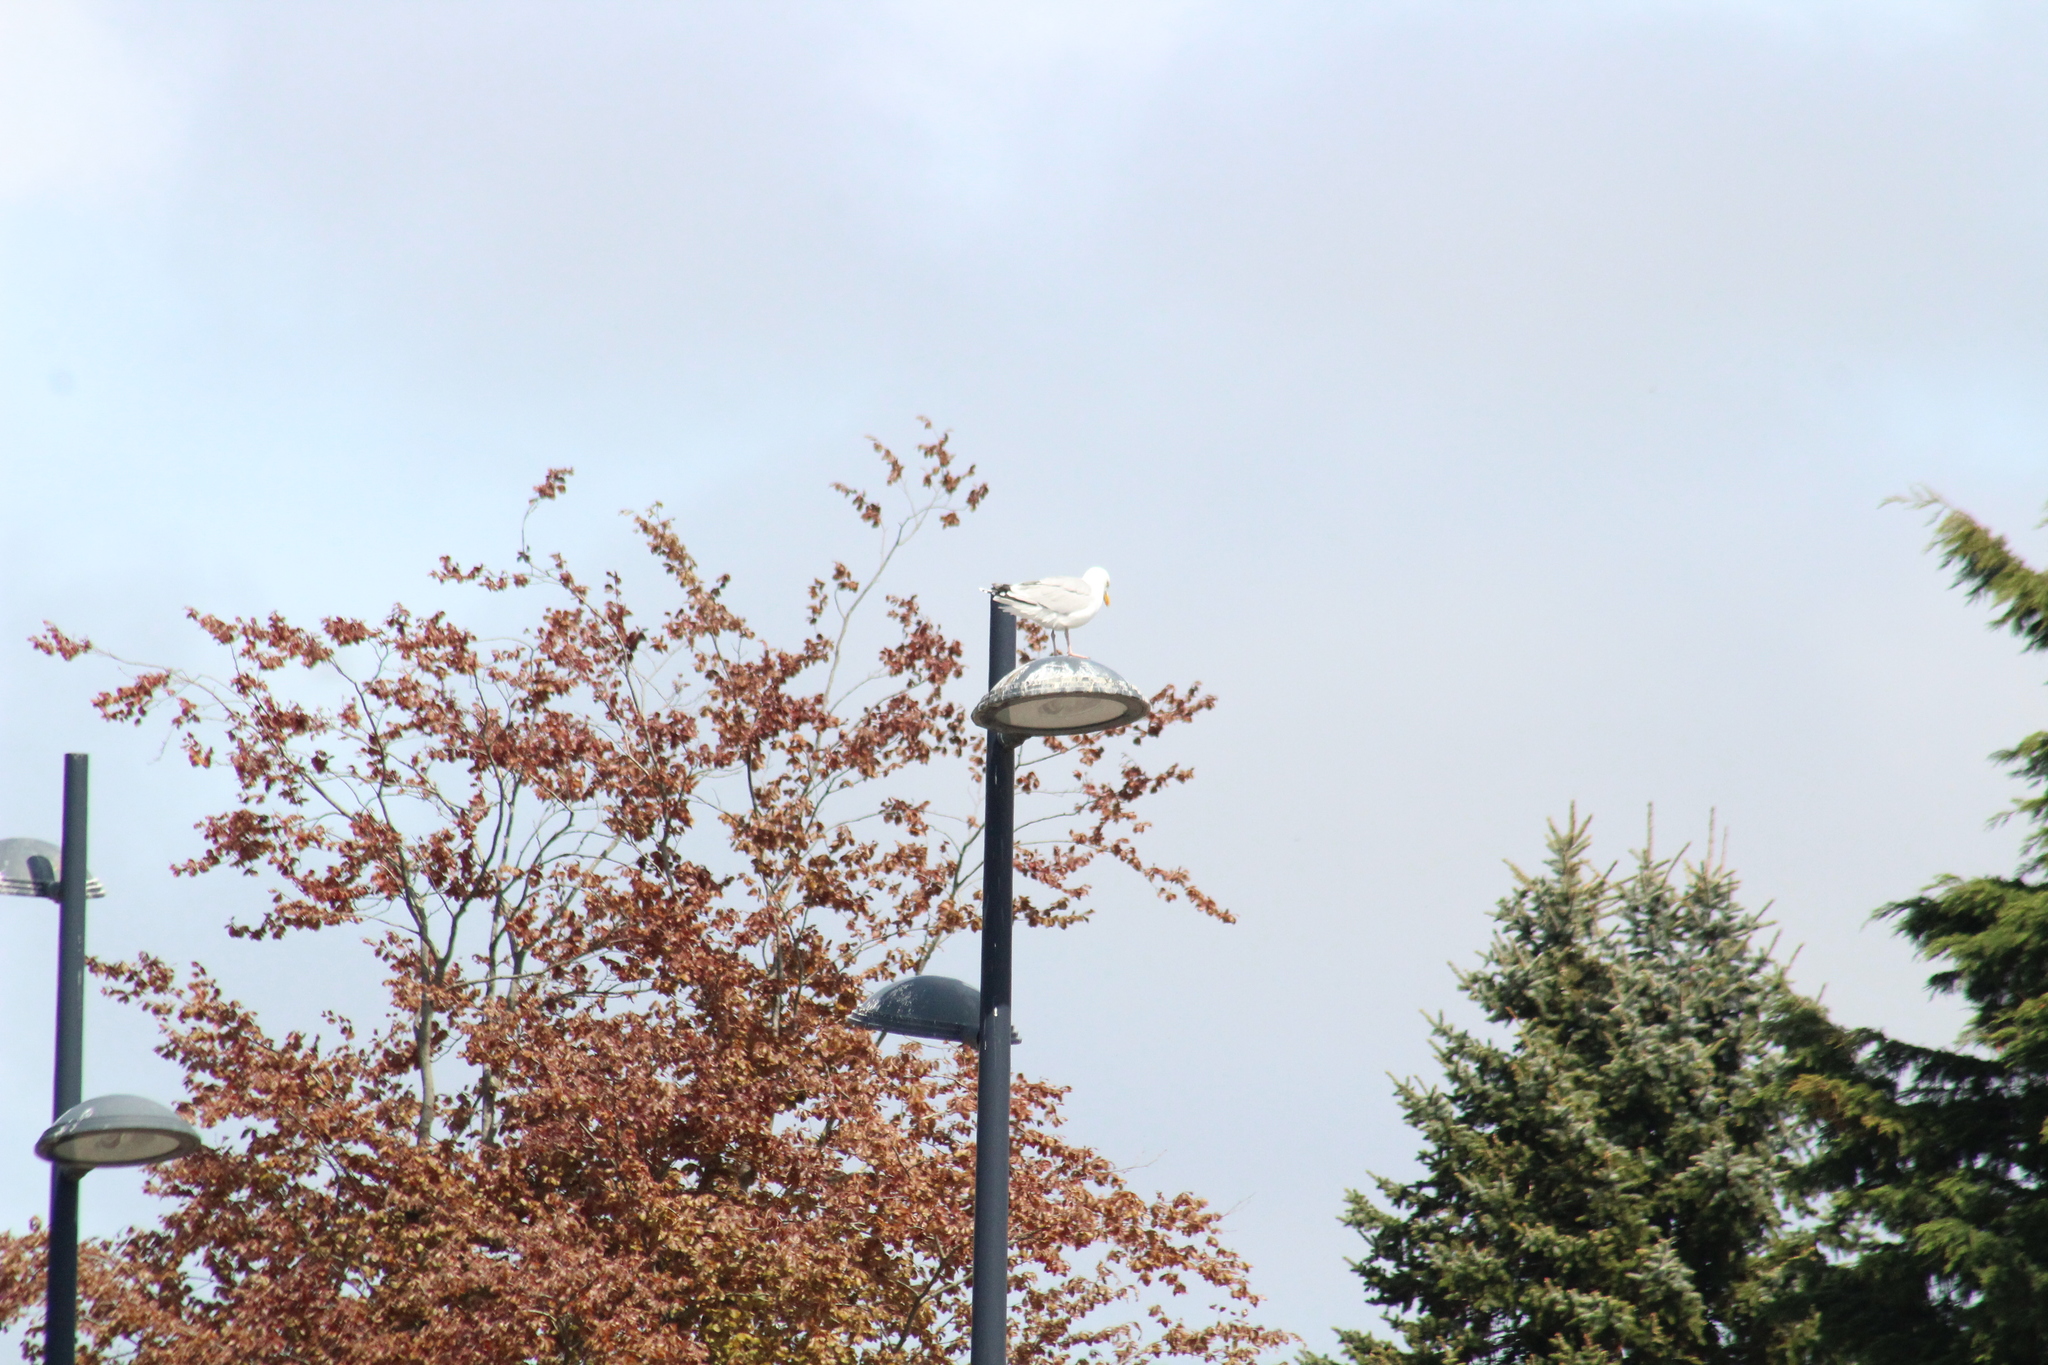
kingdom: Animalia
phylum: Chordata
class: Aves
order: Charadriiformes
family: Laridae
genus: Larus
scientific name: Larus argentatus
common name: Herring gull
